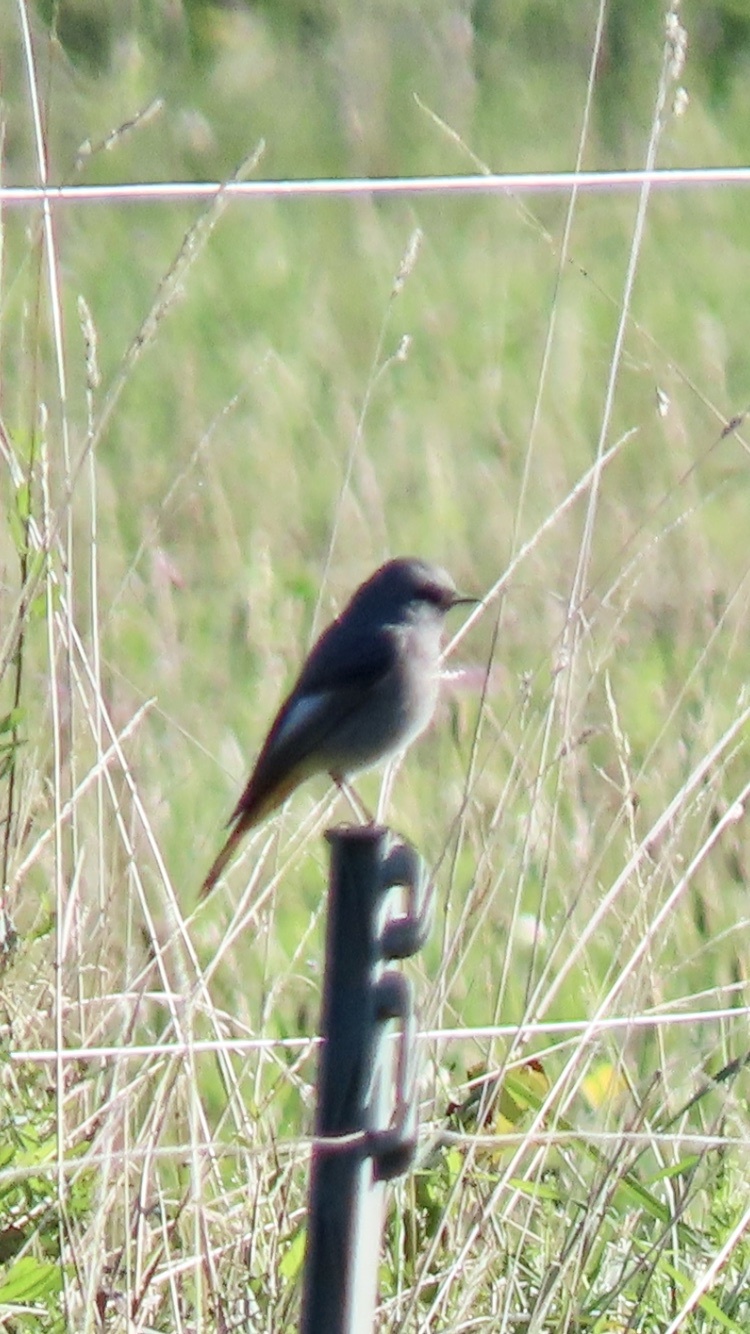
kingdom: Animalia
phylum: Chordata
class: Aves
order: Passeriformes
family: Muscicapidae
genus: Phoenicurus
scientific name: Phoenicurus ochruros
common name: Black redstart
